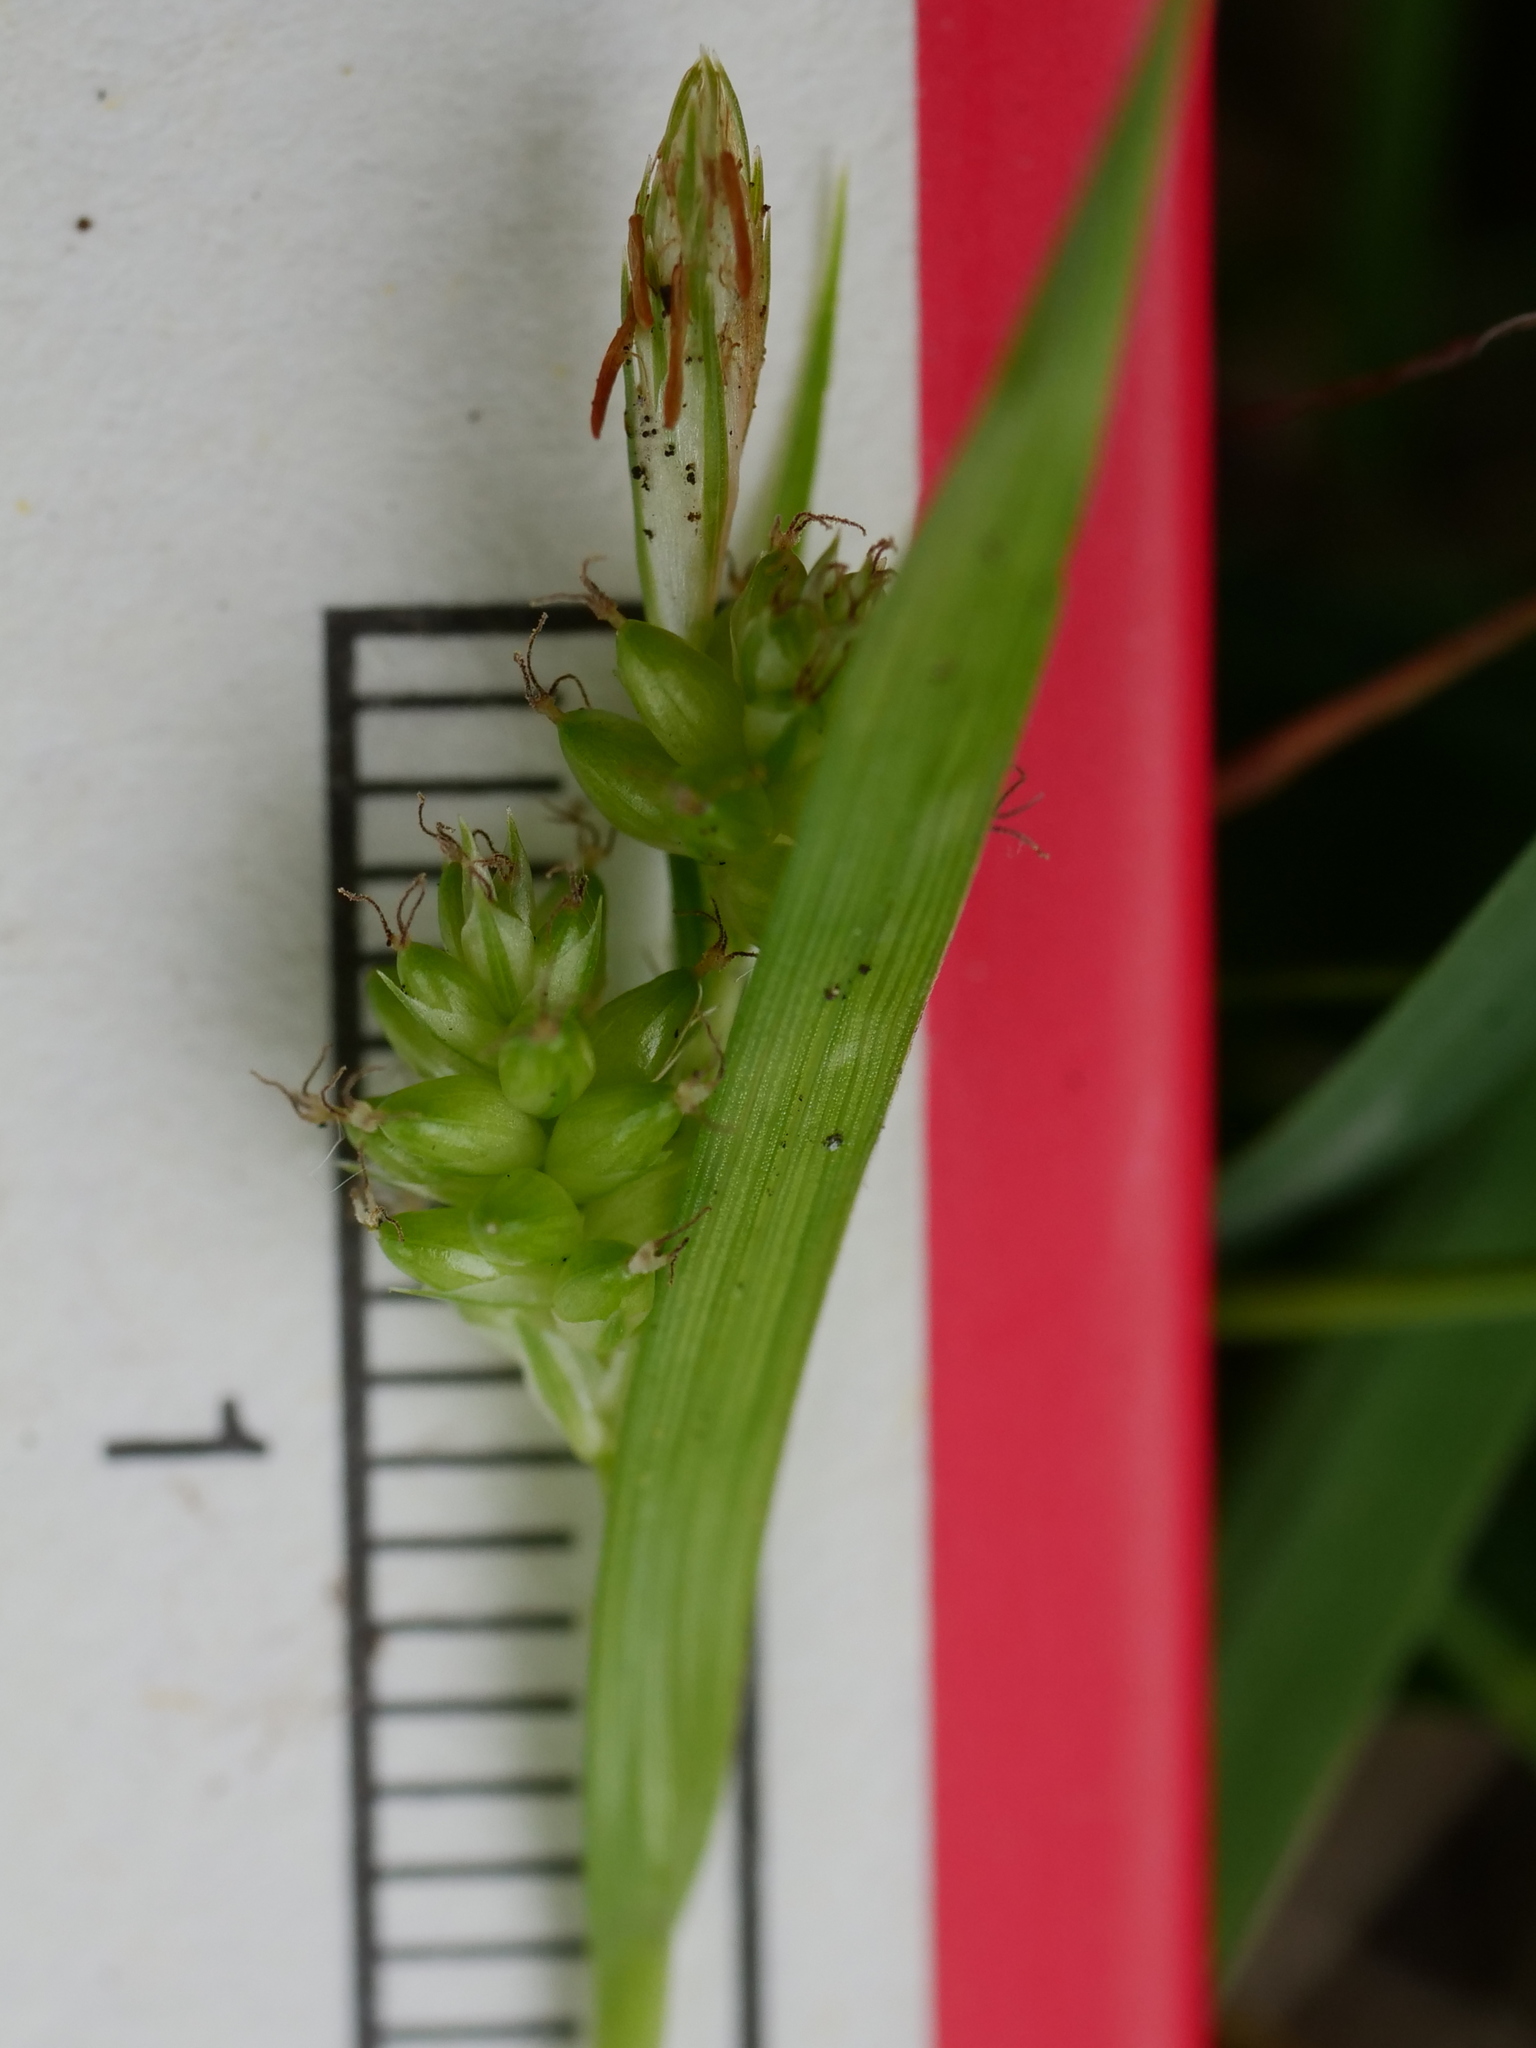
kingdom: Plantae
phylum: Tracheophyta
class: Liliopsida
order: Poales
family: Cyperaceae
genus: Carex
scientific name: Carex pallescens
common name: Pale sedge
